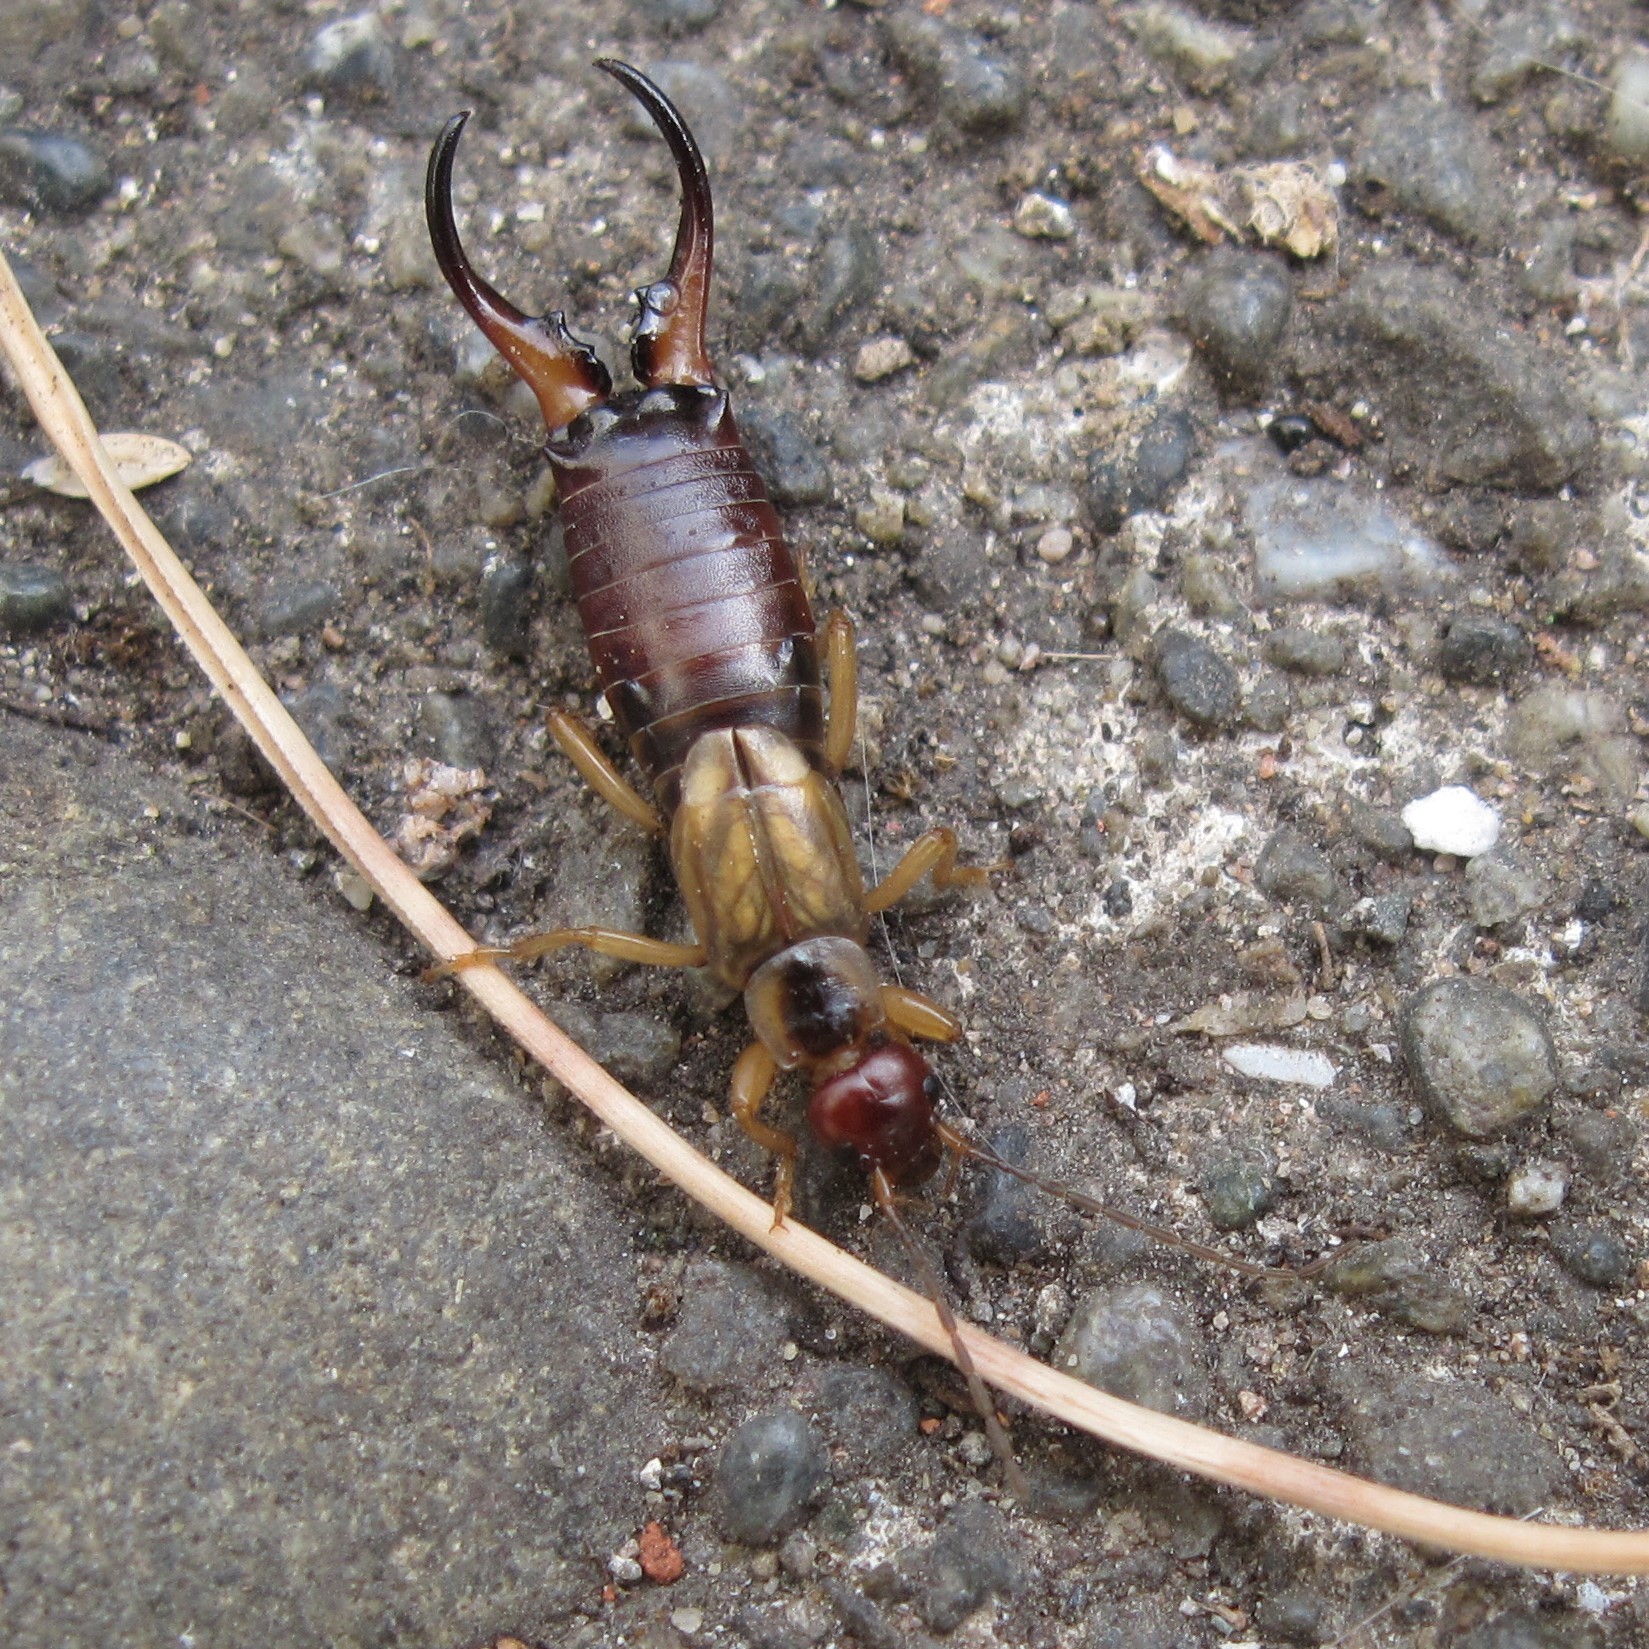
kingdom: Animalia
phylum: Arthropoda
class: Insecta
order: Dermaptera
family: Forficulidae
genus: Forficula
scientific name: Forficula
